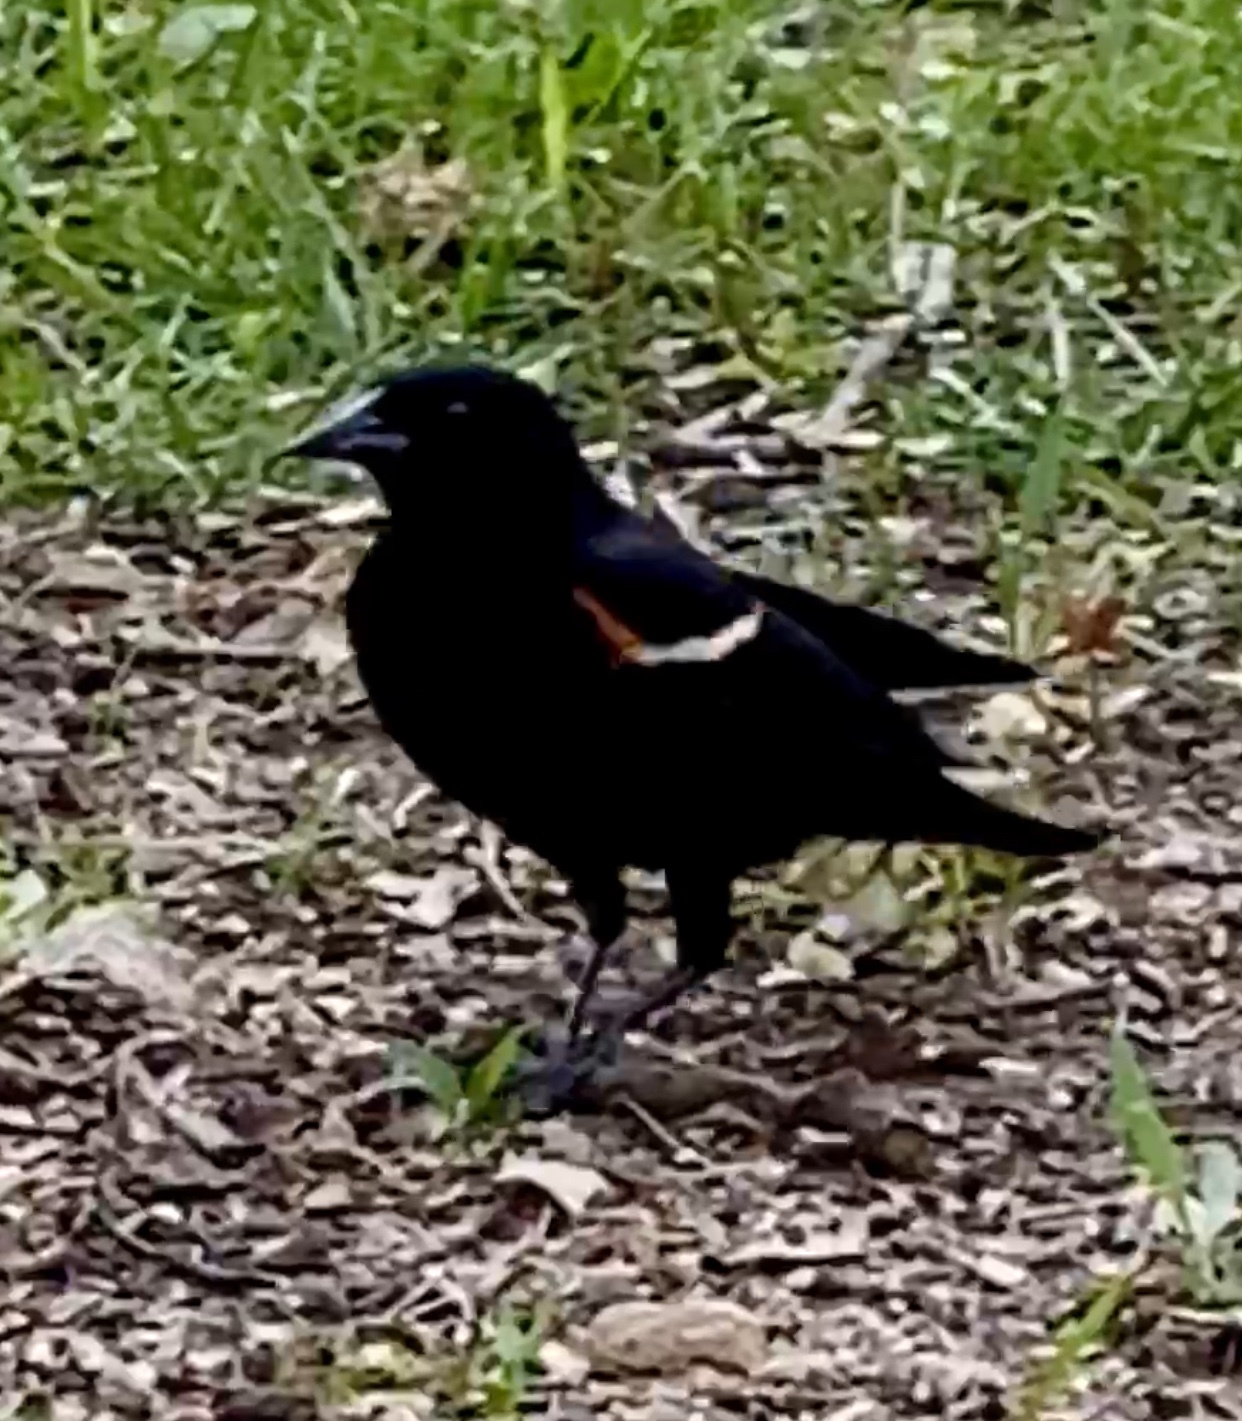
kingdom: Animalia
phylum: Chordata
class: Aves
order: Passeriformes
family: Icteridae
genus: Agelaius
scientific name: Agelaius phoeniceus
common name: Red-winged blackbird
